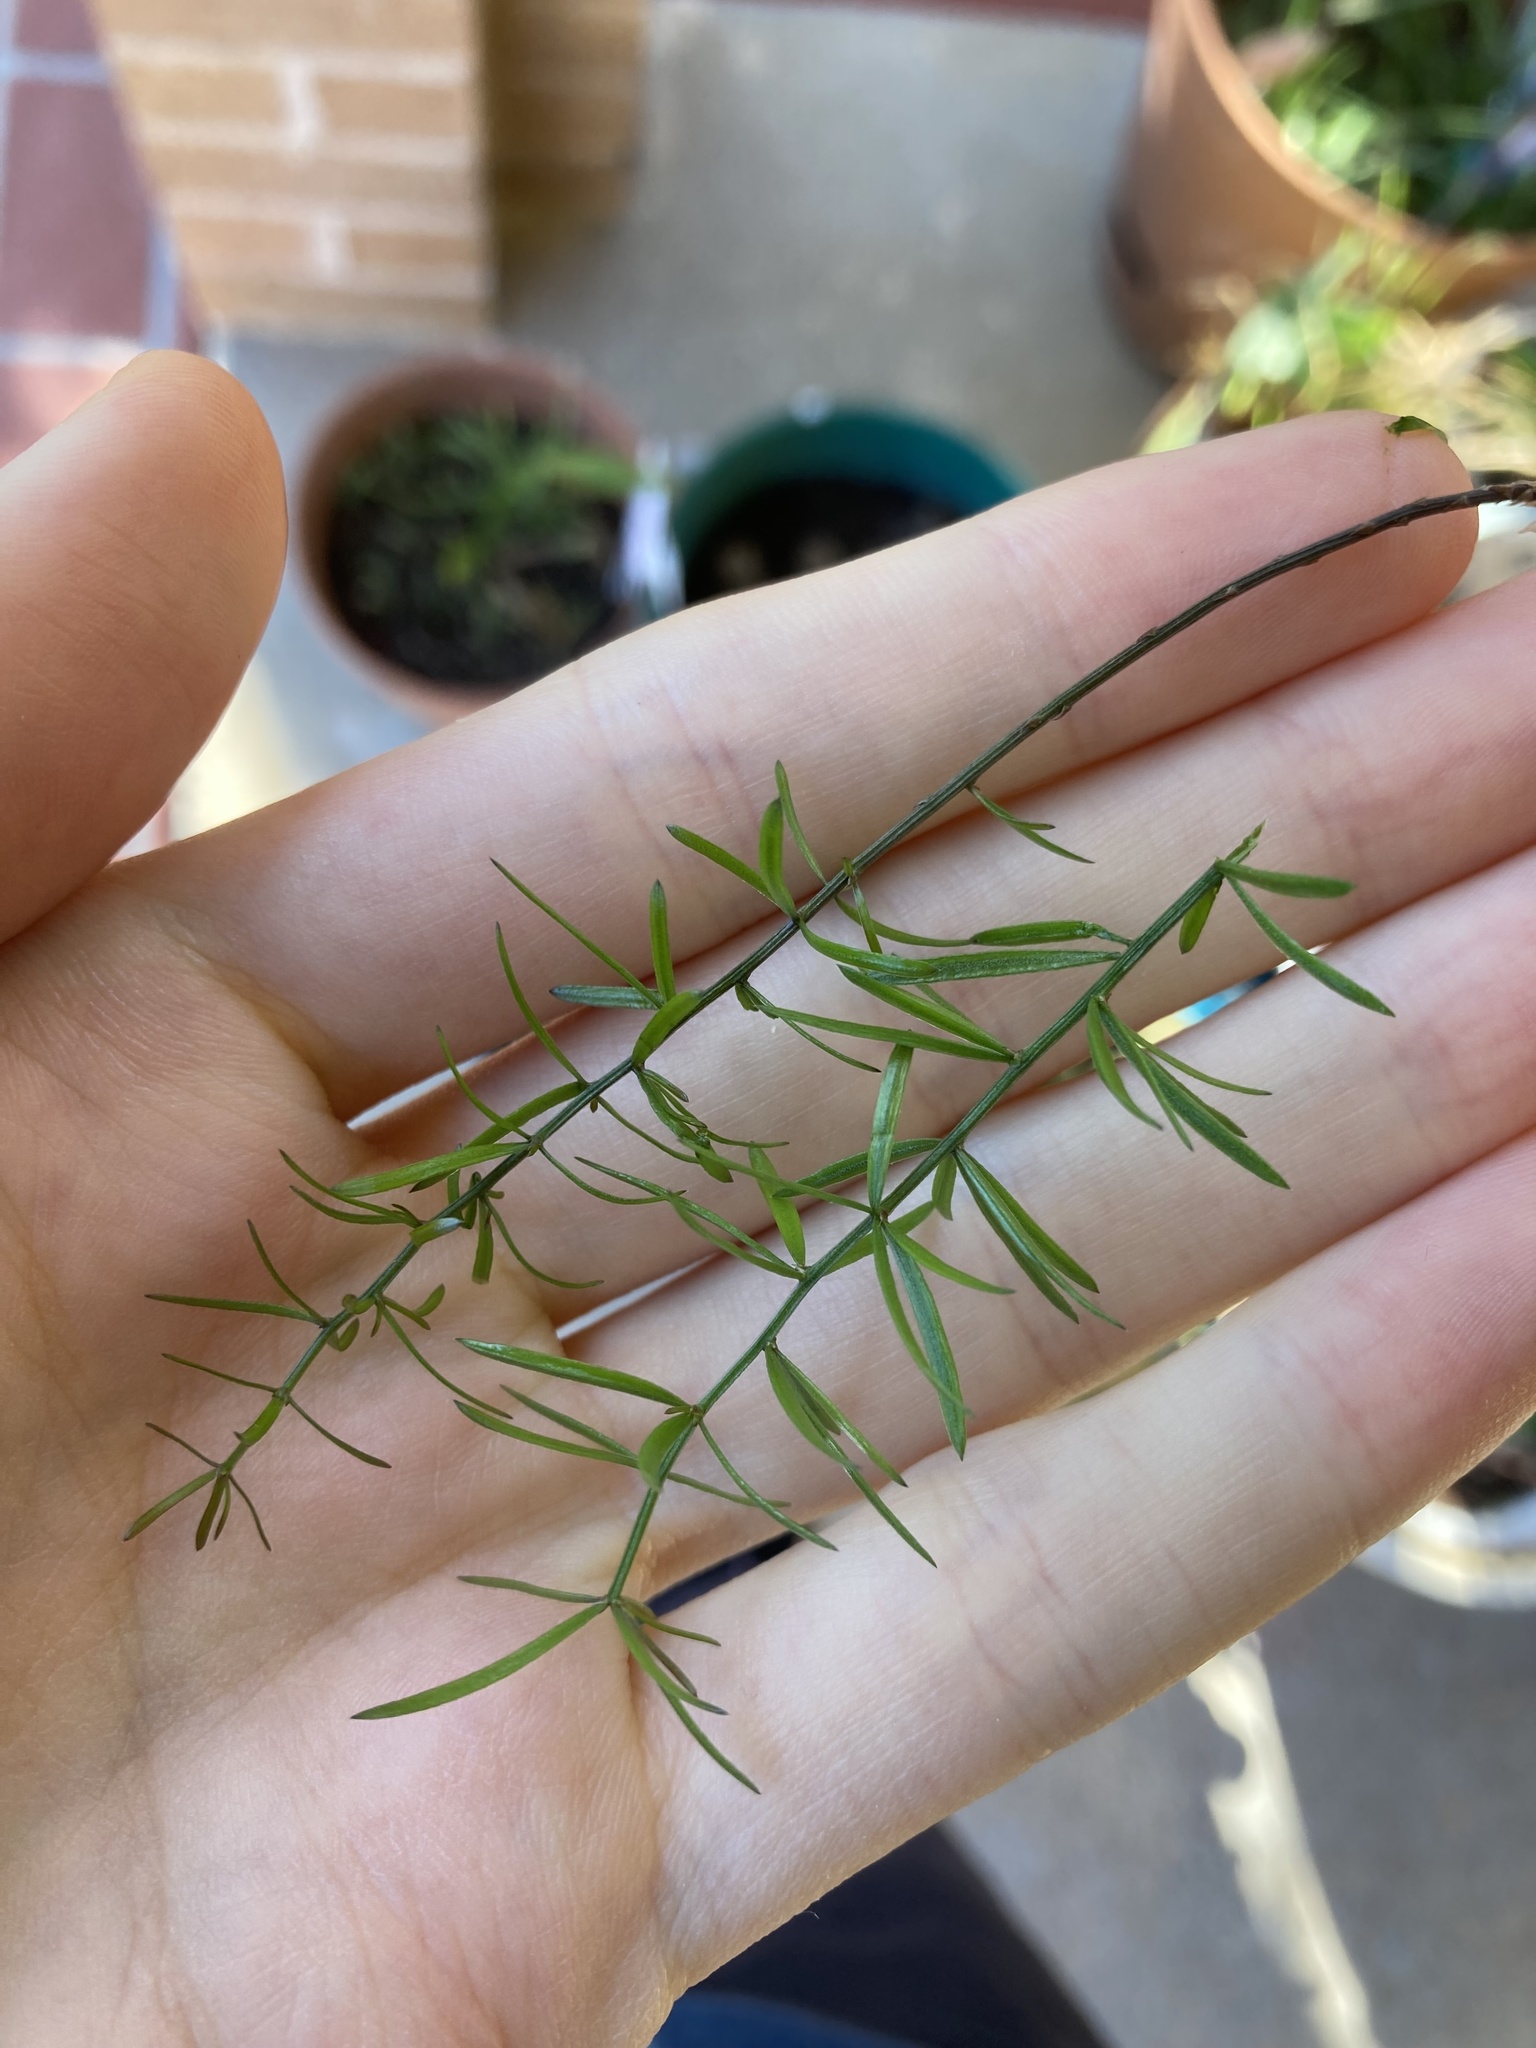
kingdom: Plantae
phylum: Tracheophyta
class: Liliopsida
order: Asparagales
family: Asparagaceae
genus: Asparagus
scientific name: Asparagus aethiopicus
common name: Sprenger's asparagus fern
